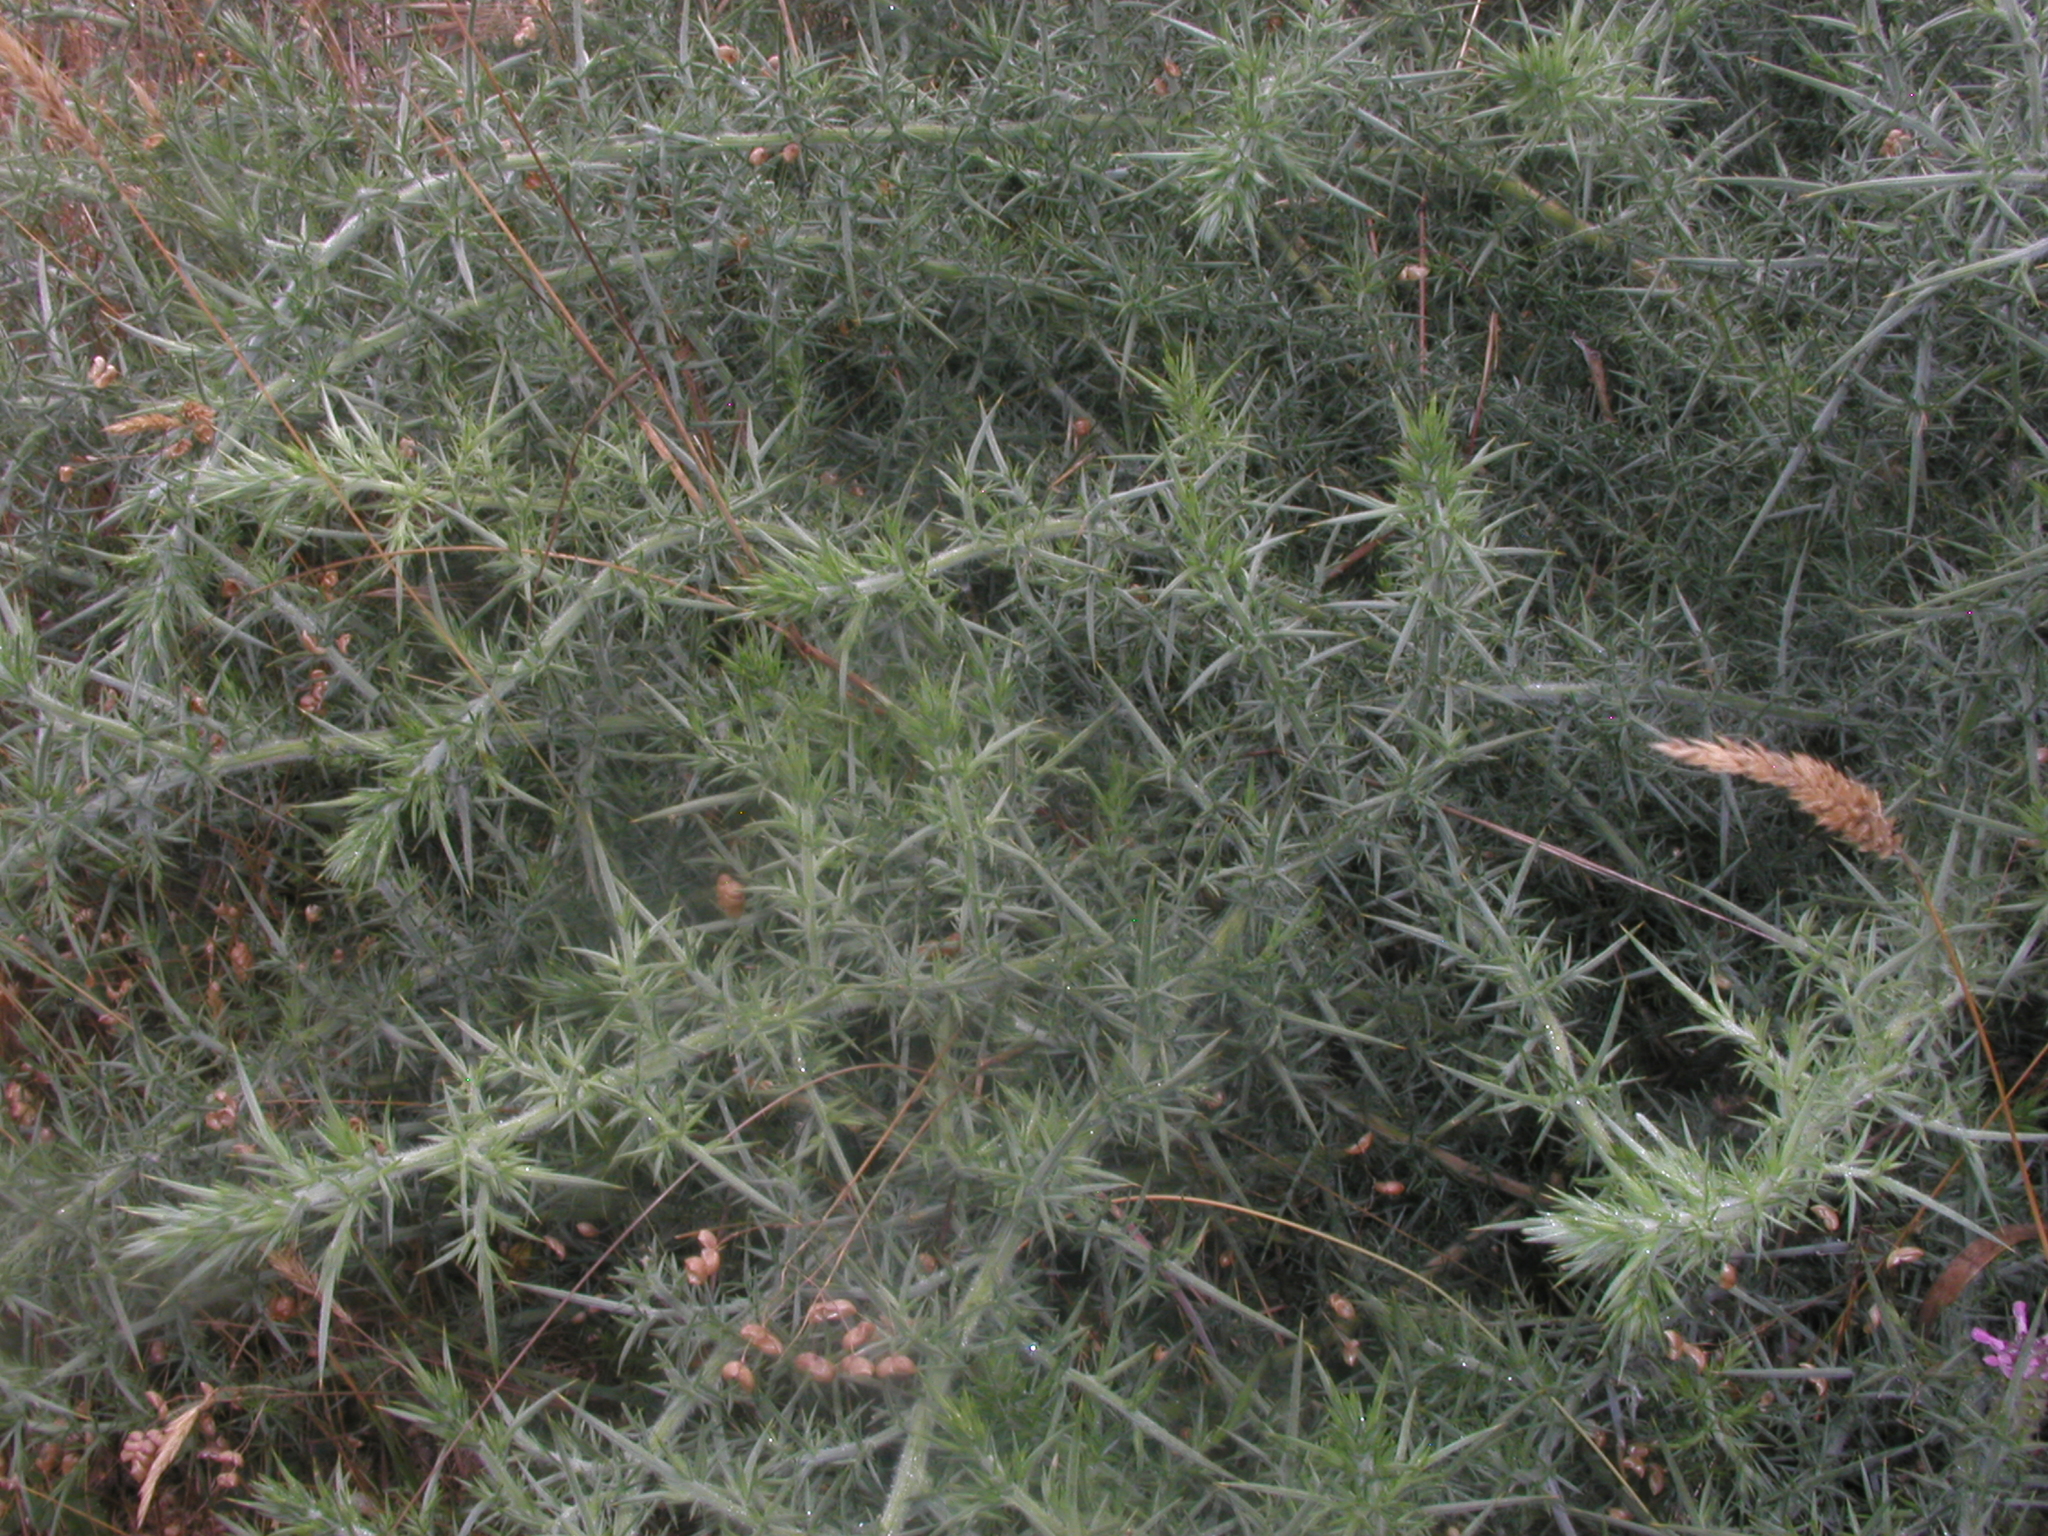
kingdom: Plantae
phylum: Tracheophyta
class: Magnoliopsida
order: Fabales
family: Fabaceae
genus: Ulex
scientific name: Ulex europaeus
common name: Common gorse
